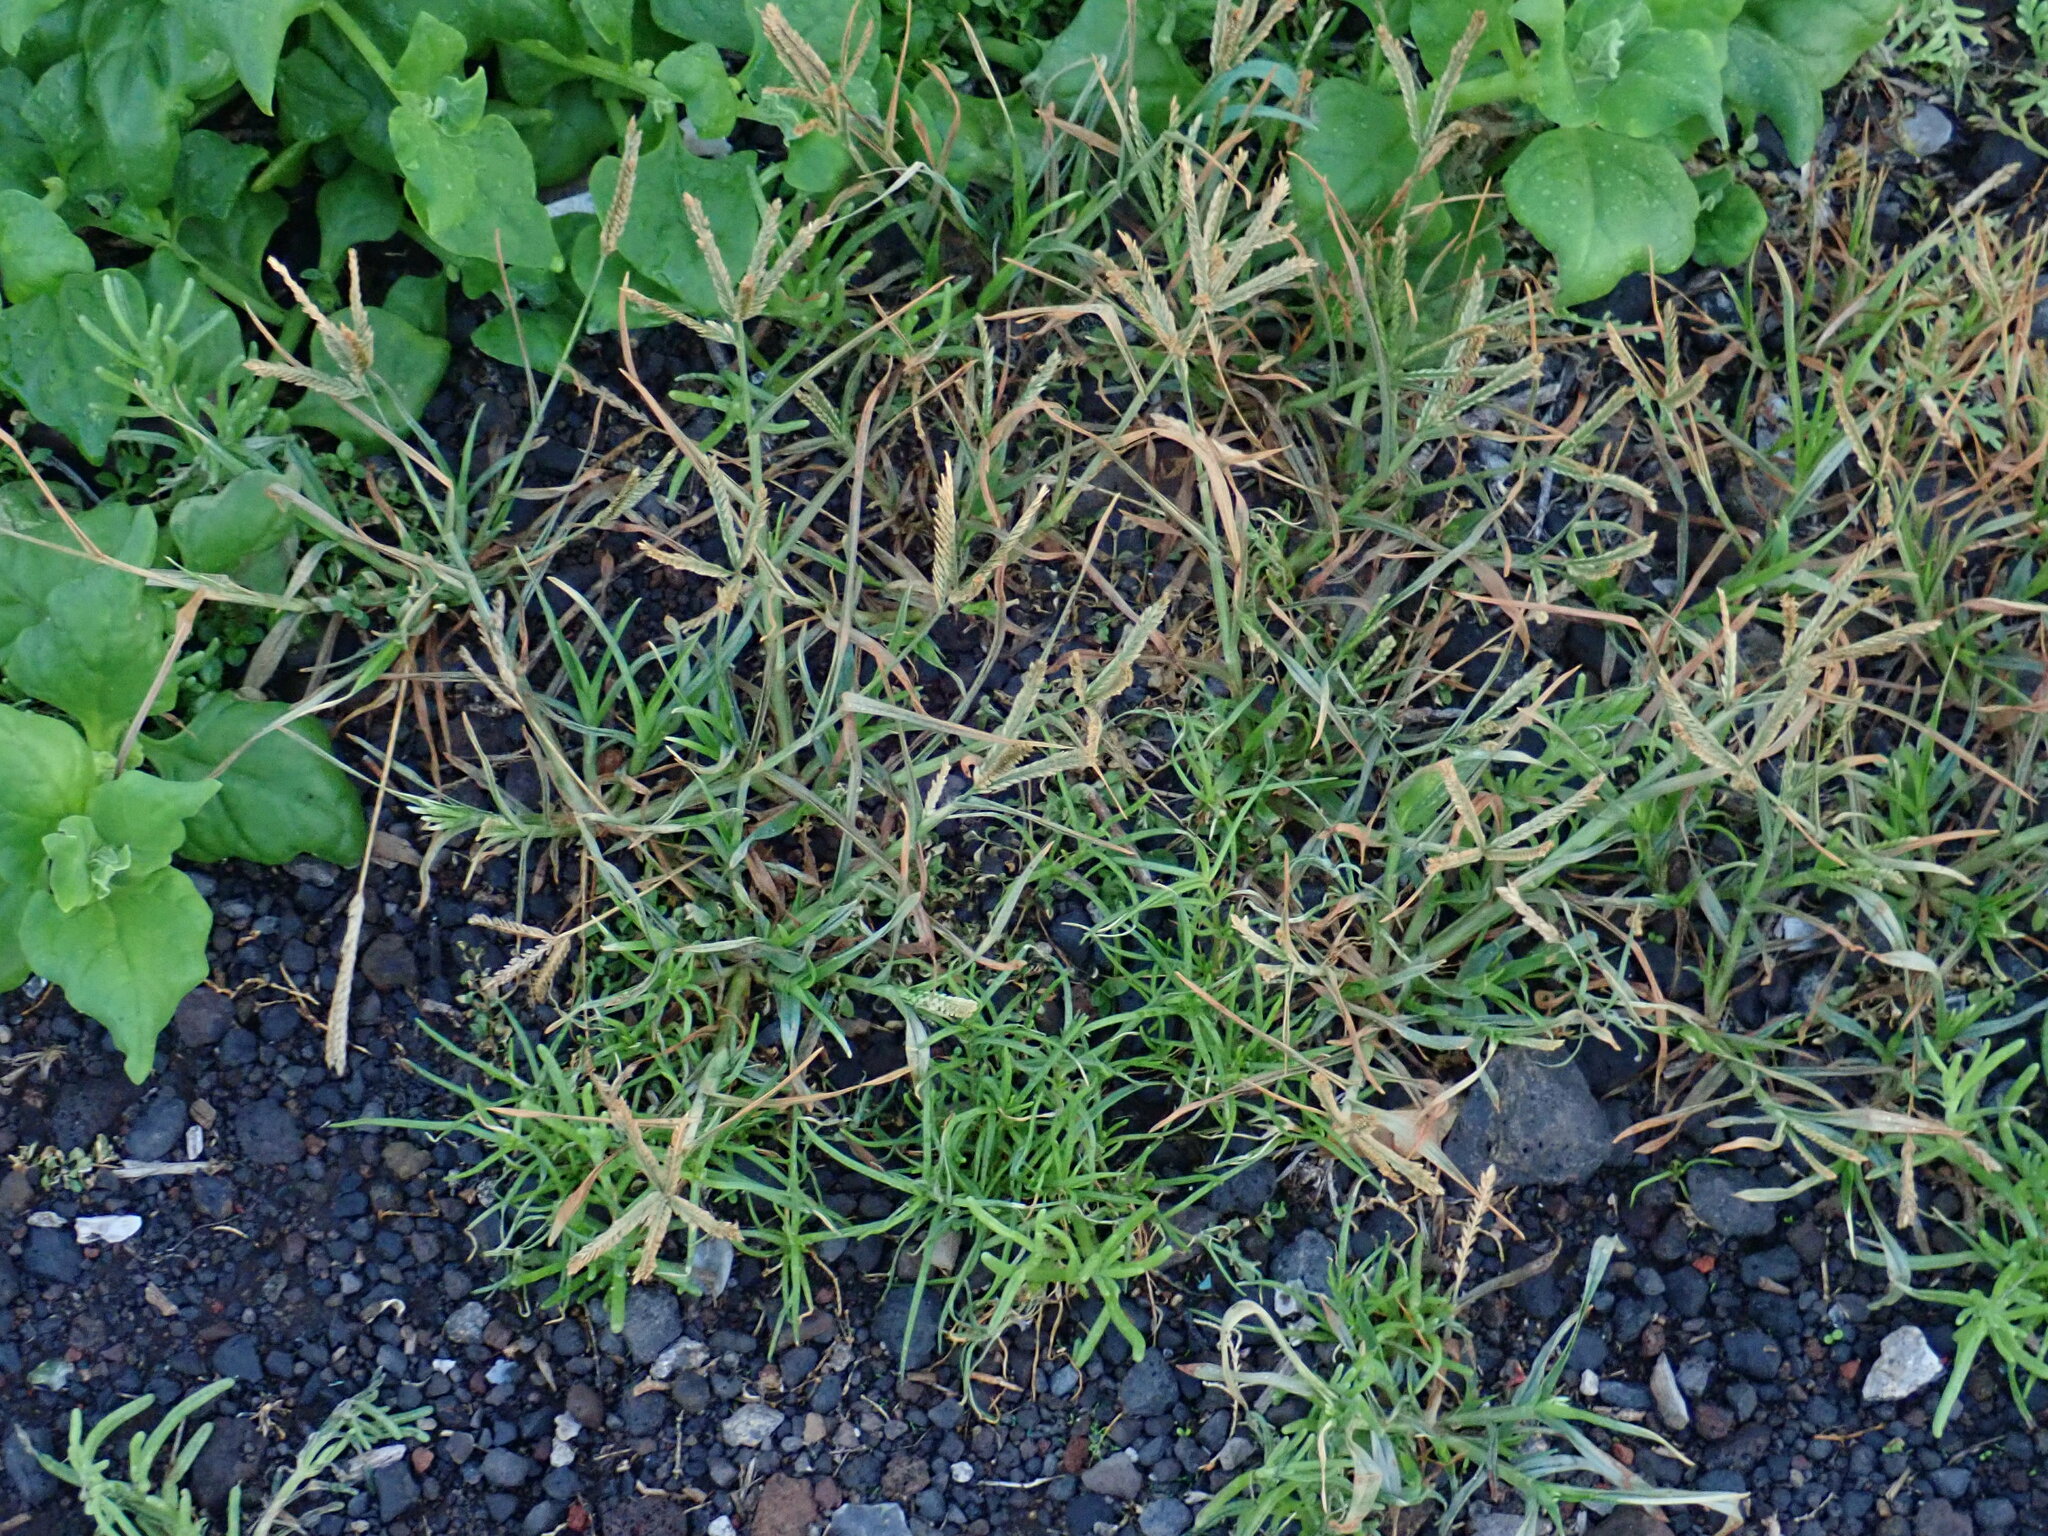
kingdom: Plantae
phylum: Tracheophyta
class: Liliopsida
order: Poales
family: Poaceae
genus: Eleusine
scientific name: Eleusine indica
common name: Yard-grass
